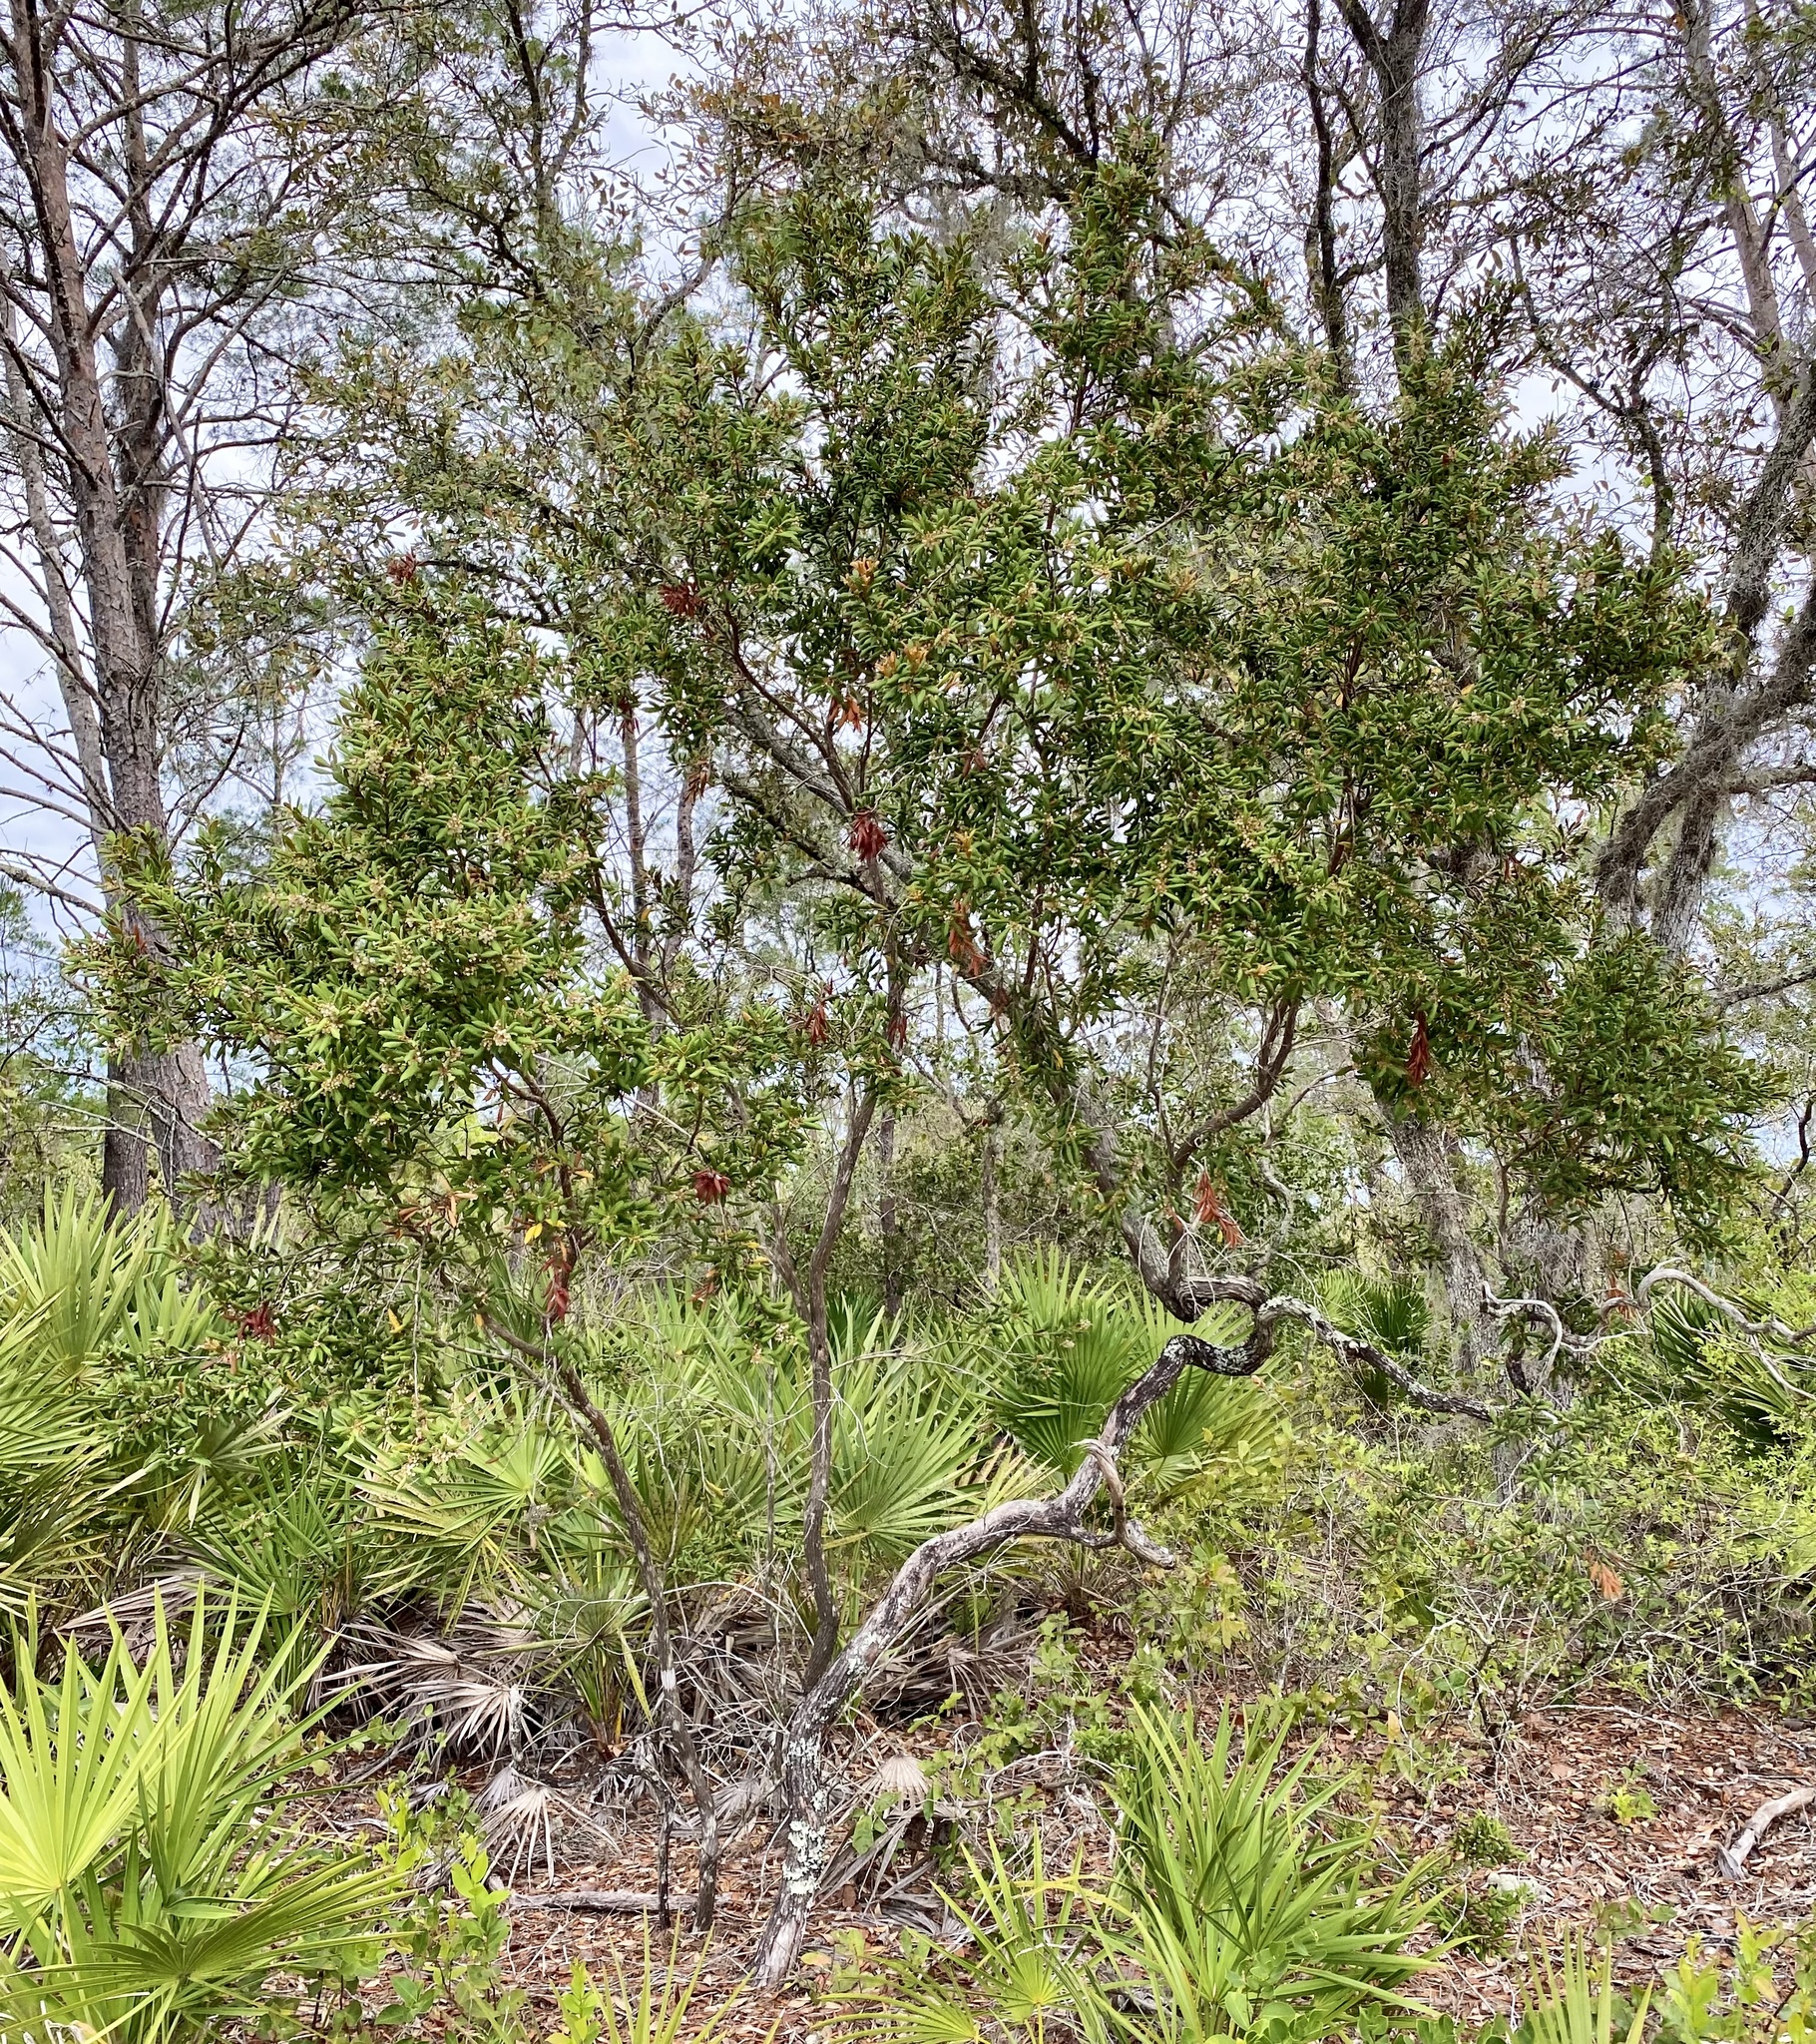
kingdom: Plantae
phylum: Tracheophyta
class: Magnoliopsida
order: Ericales
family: Ericaceae
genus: Lyonia
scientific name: Lyonia ferruginea
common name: Rusty lyonia
